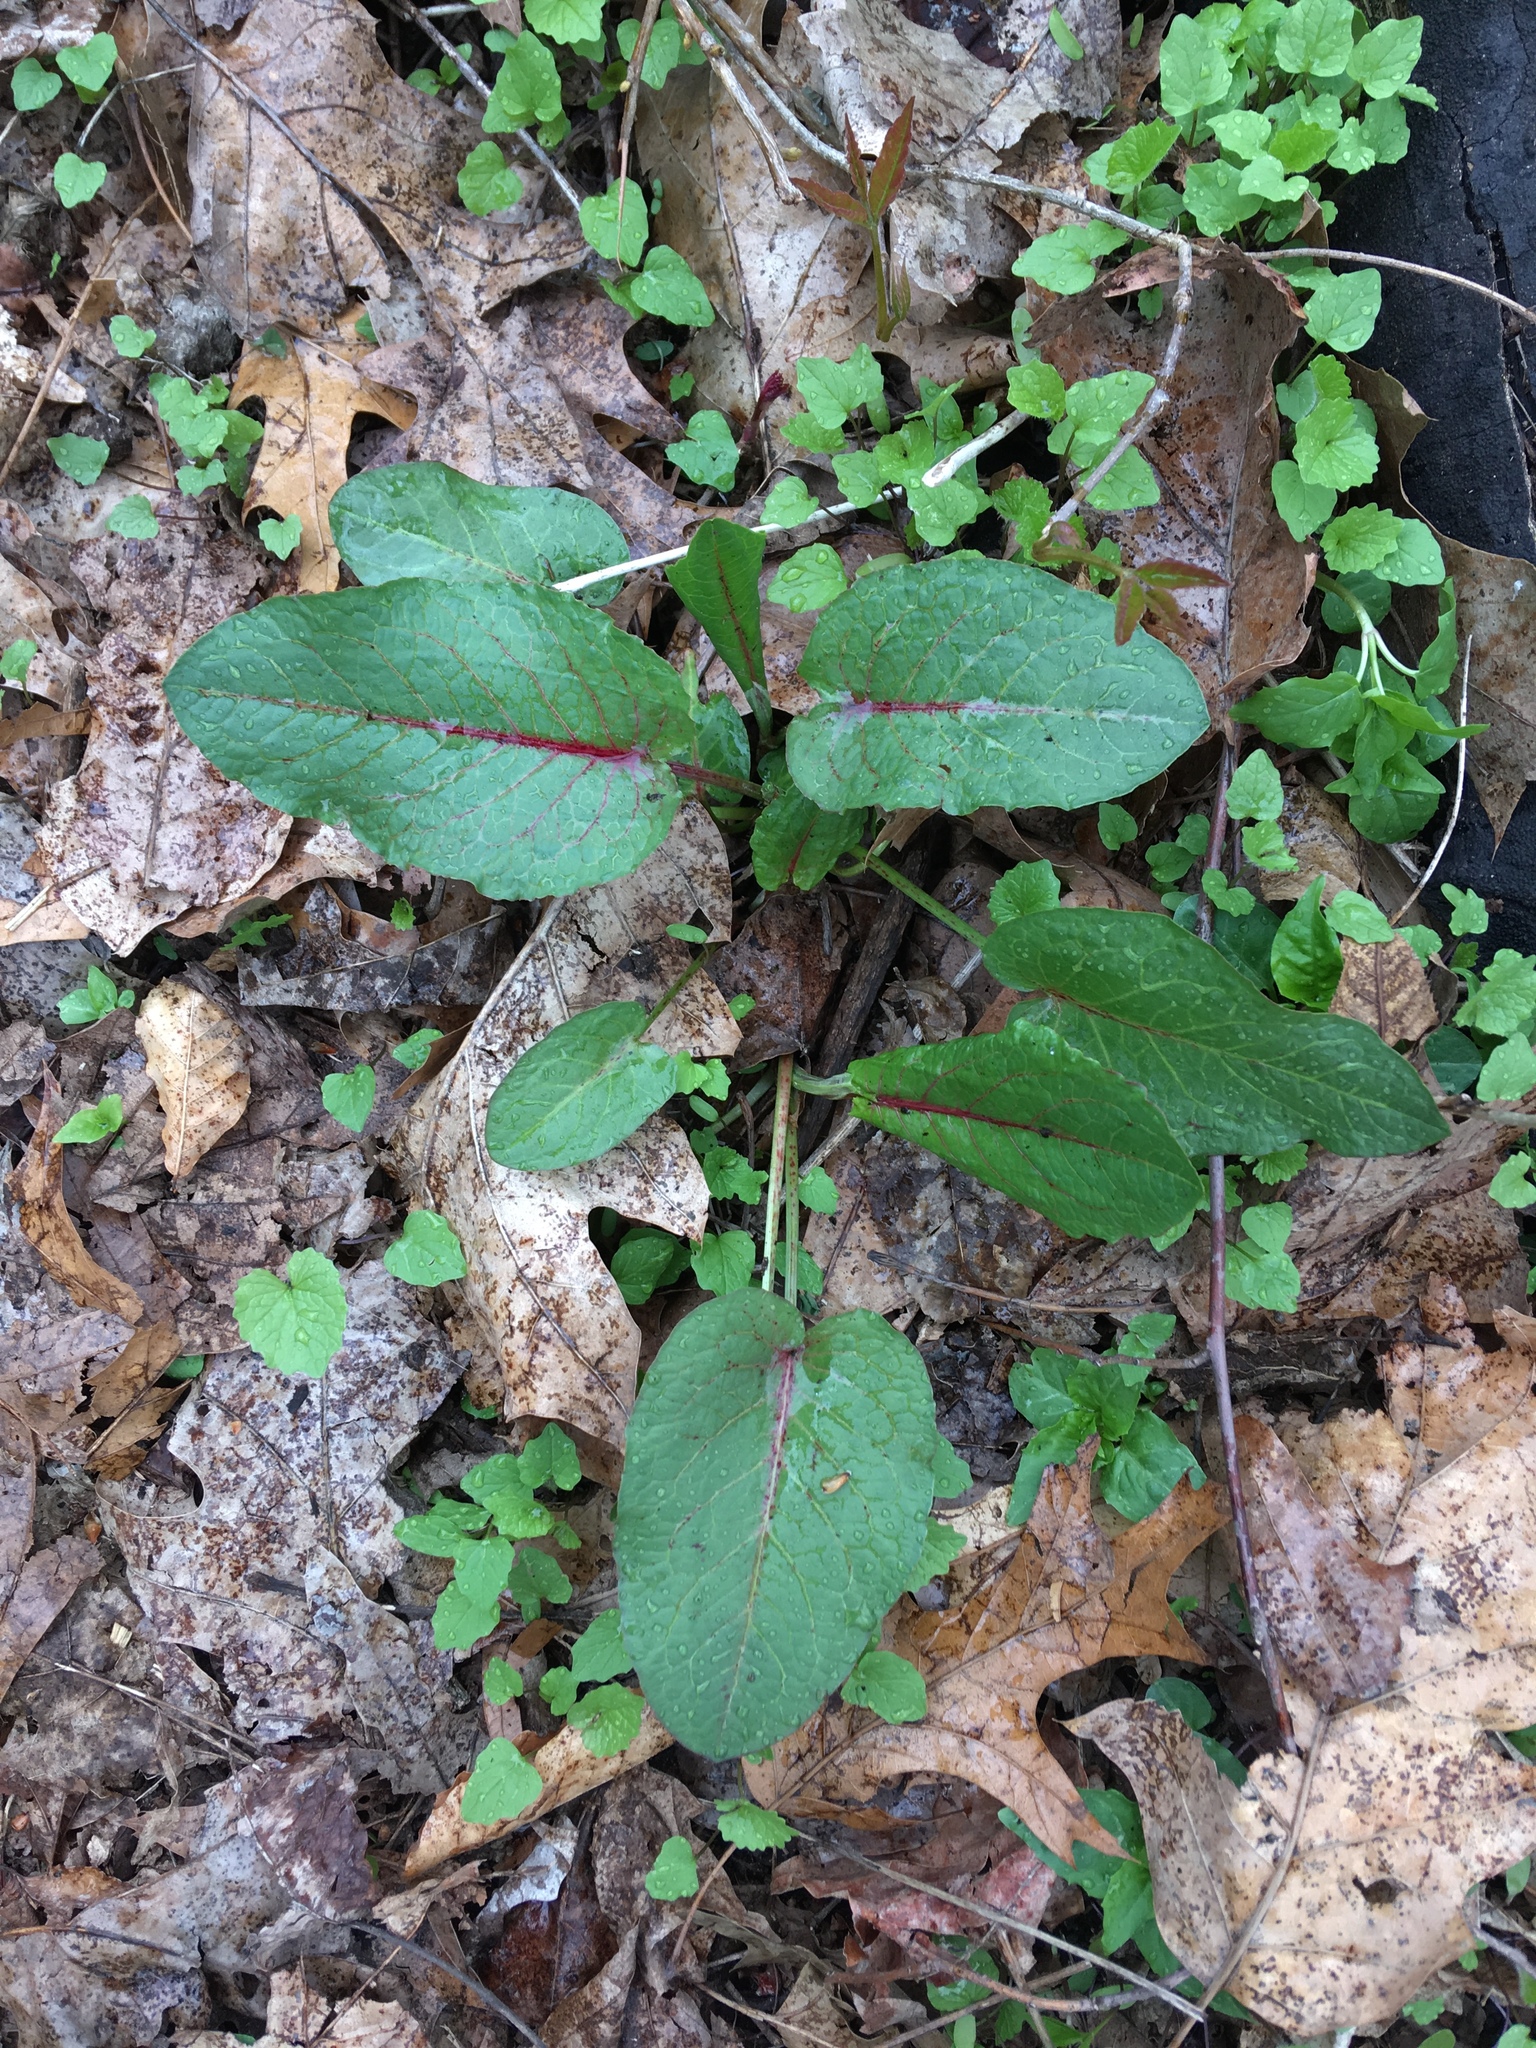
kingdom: Plantae
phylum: Tracheophyta
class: Magnoliopsida
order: Caryophyllales
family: Polygonaceae
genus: Rumex
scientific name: Rumex obtusifolius
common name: Bitter dock
